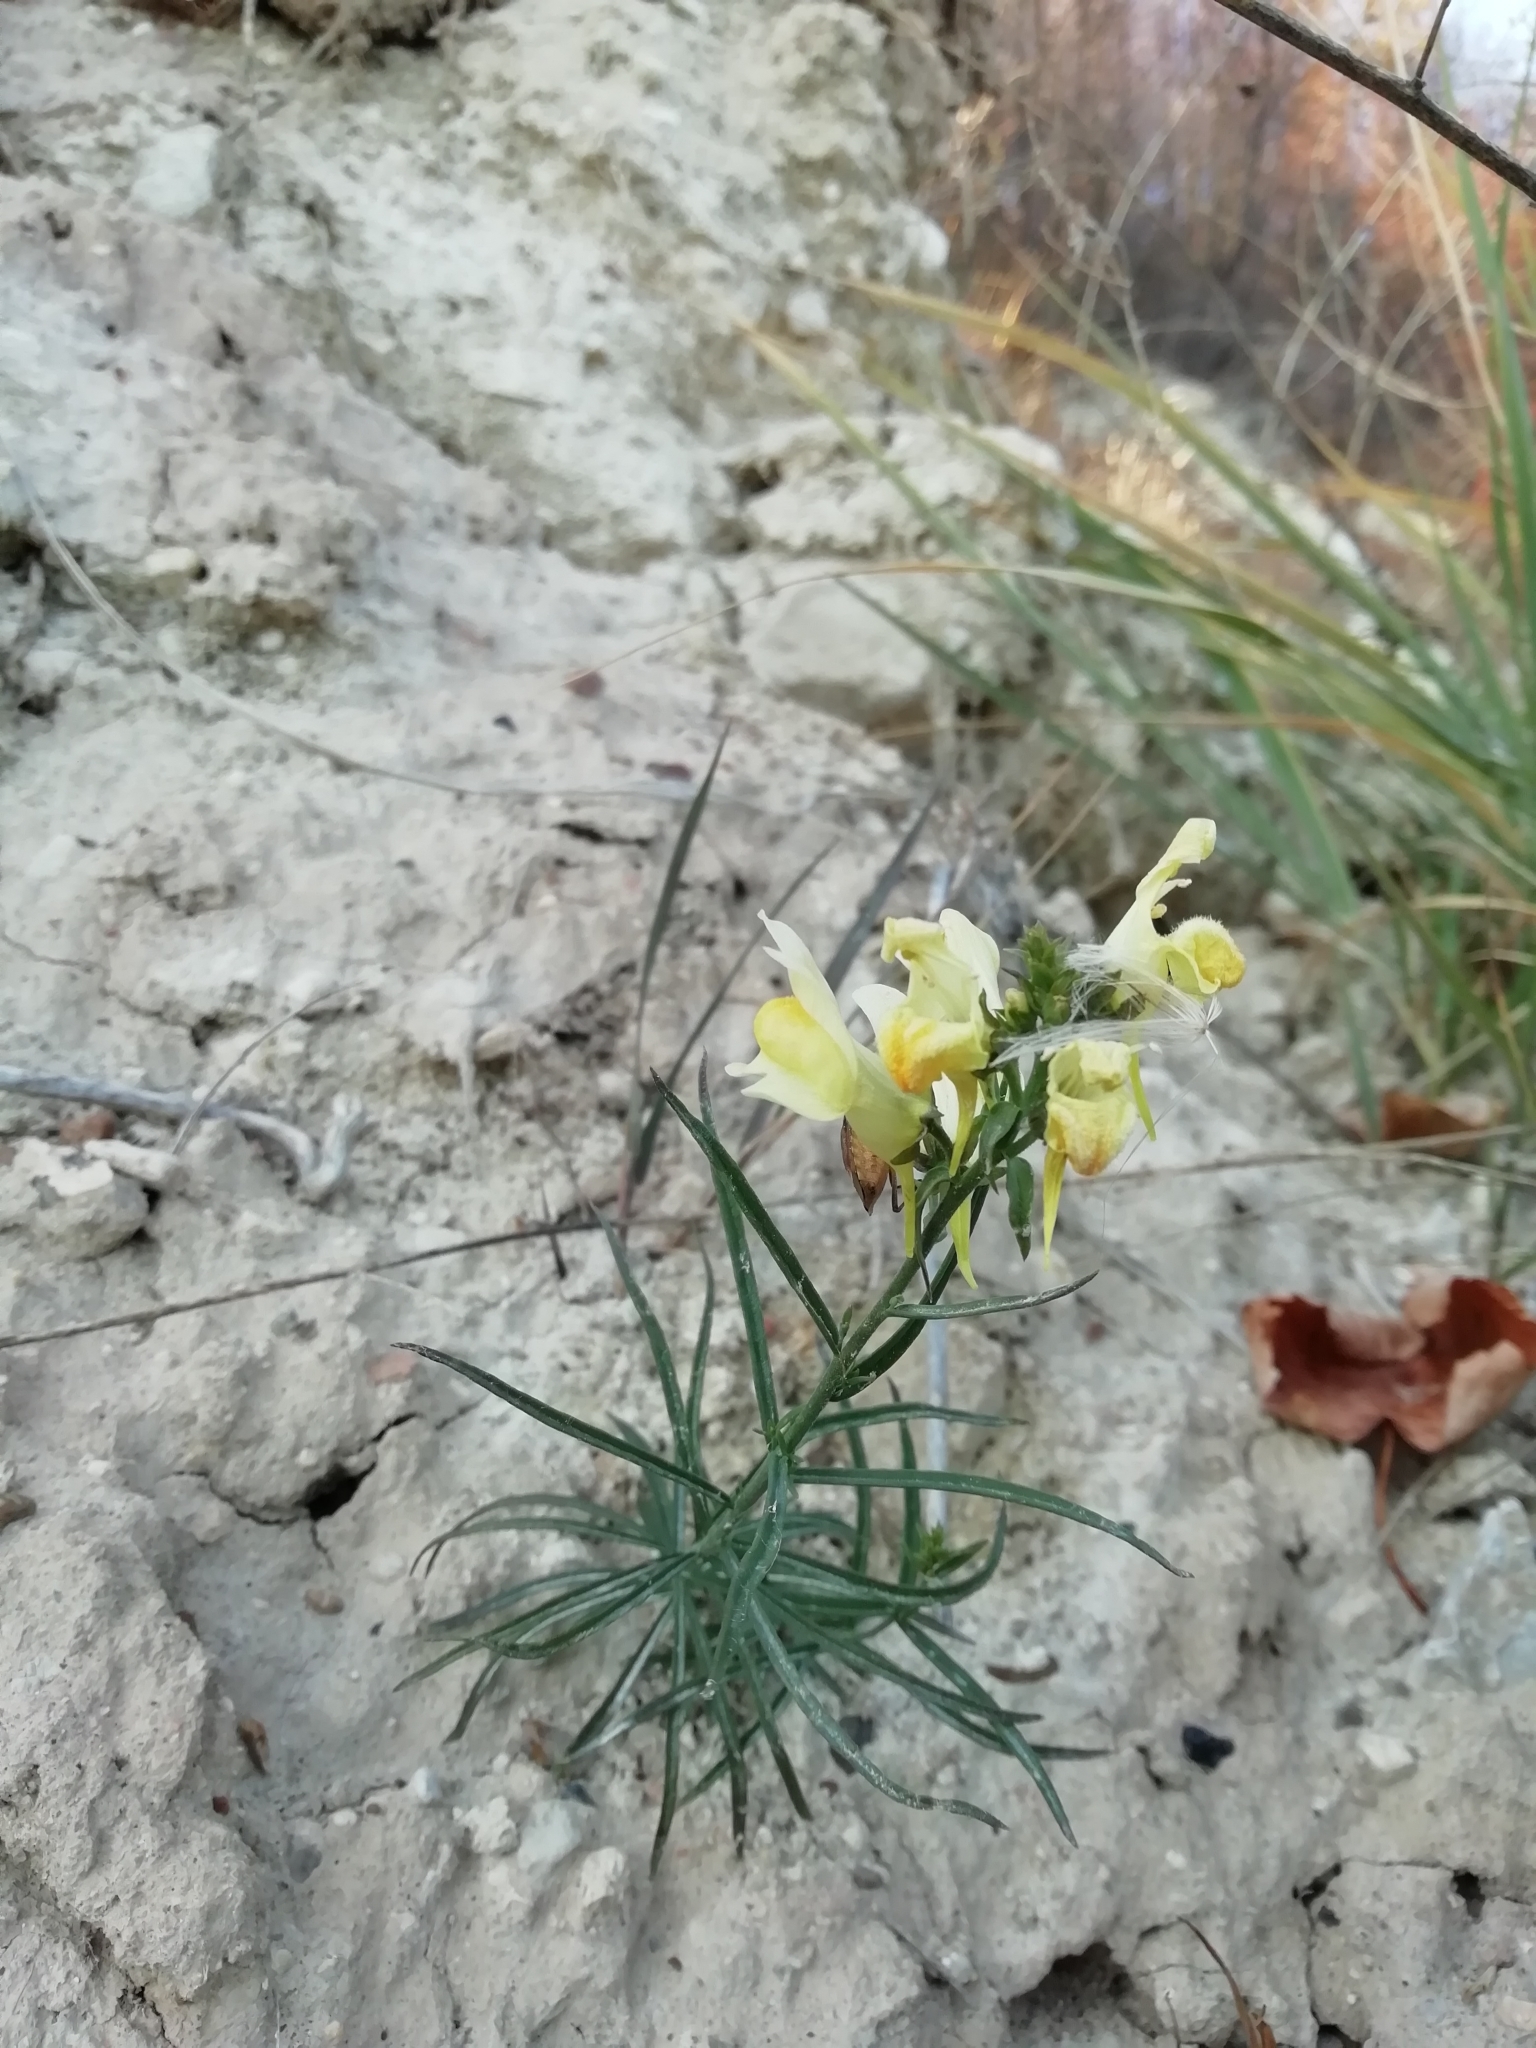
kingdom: Plantae
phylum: Tracheophyta
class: Magnoliopsida
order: Lamiales
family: Plantaginaceae
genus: Linaria
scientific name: Linaria vulgaris
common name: Butter and eggs
